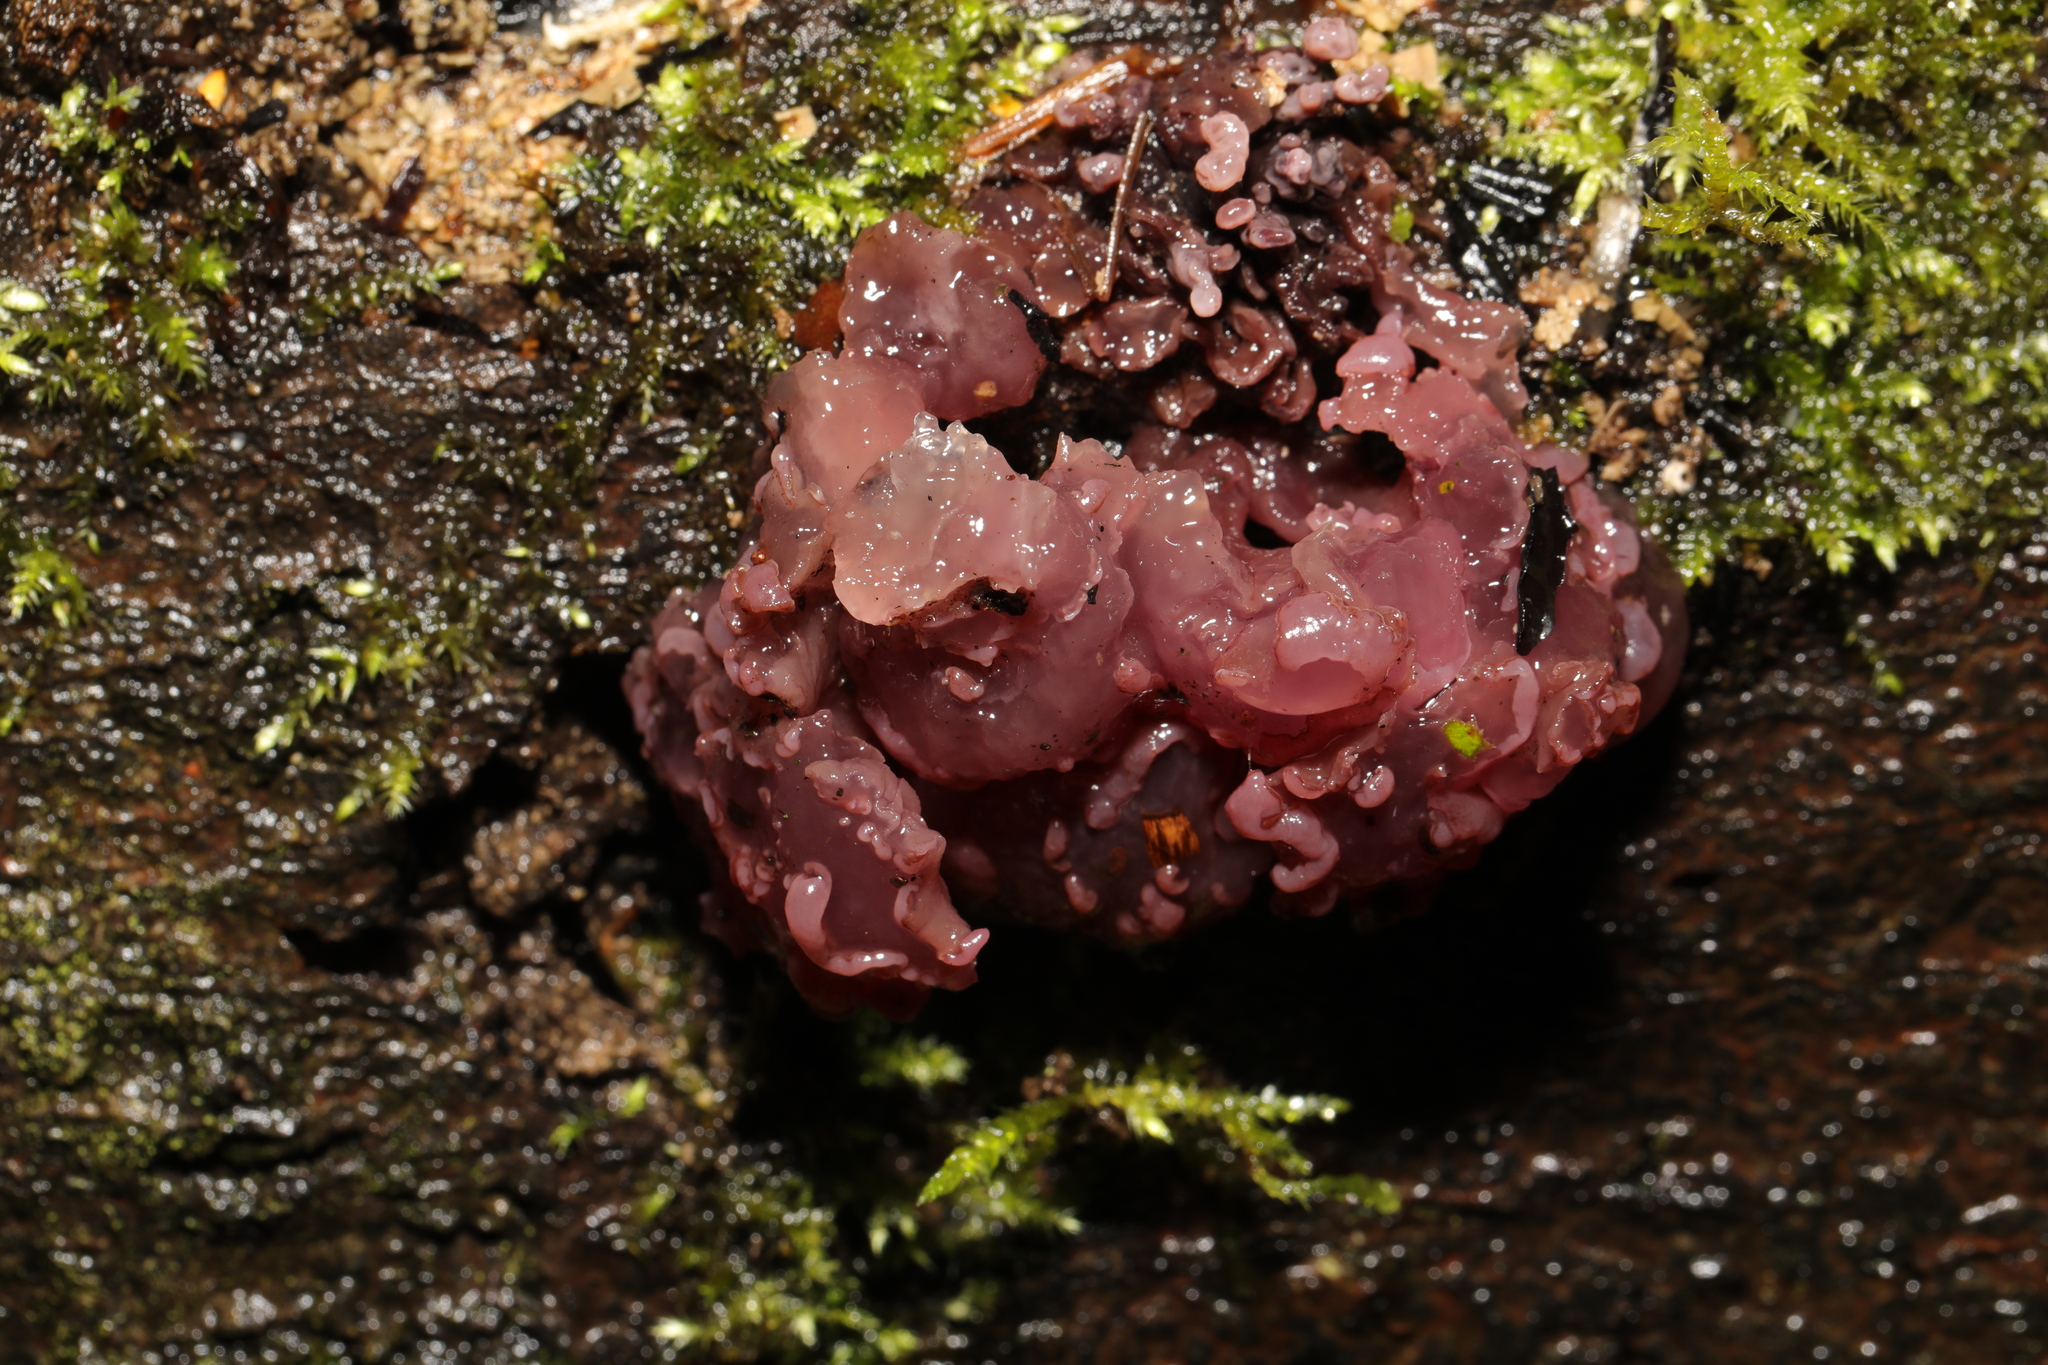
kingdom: Fungi
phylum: Ascomycota
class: Leotiomycetes
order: Helotiales
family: Gelatinodiscaceae
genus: Ascocoryne
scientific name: Ascocoryne sarcoides
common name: Purple jellydisc
